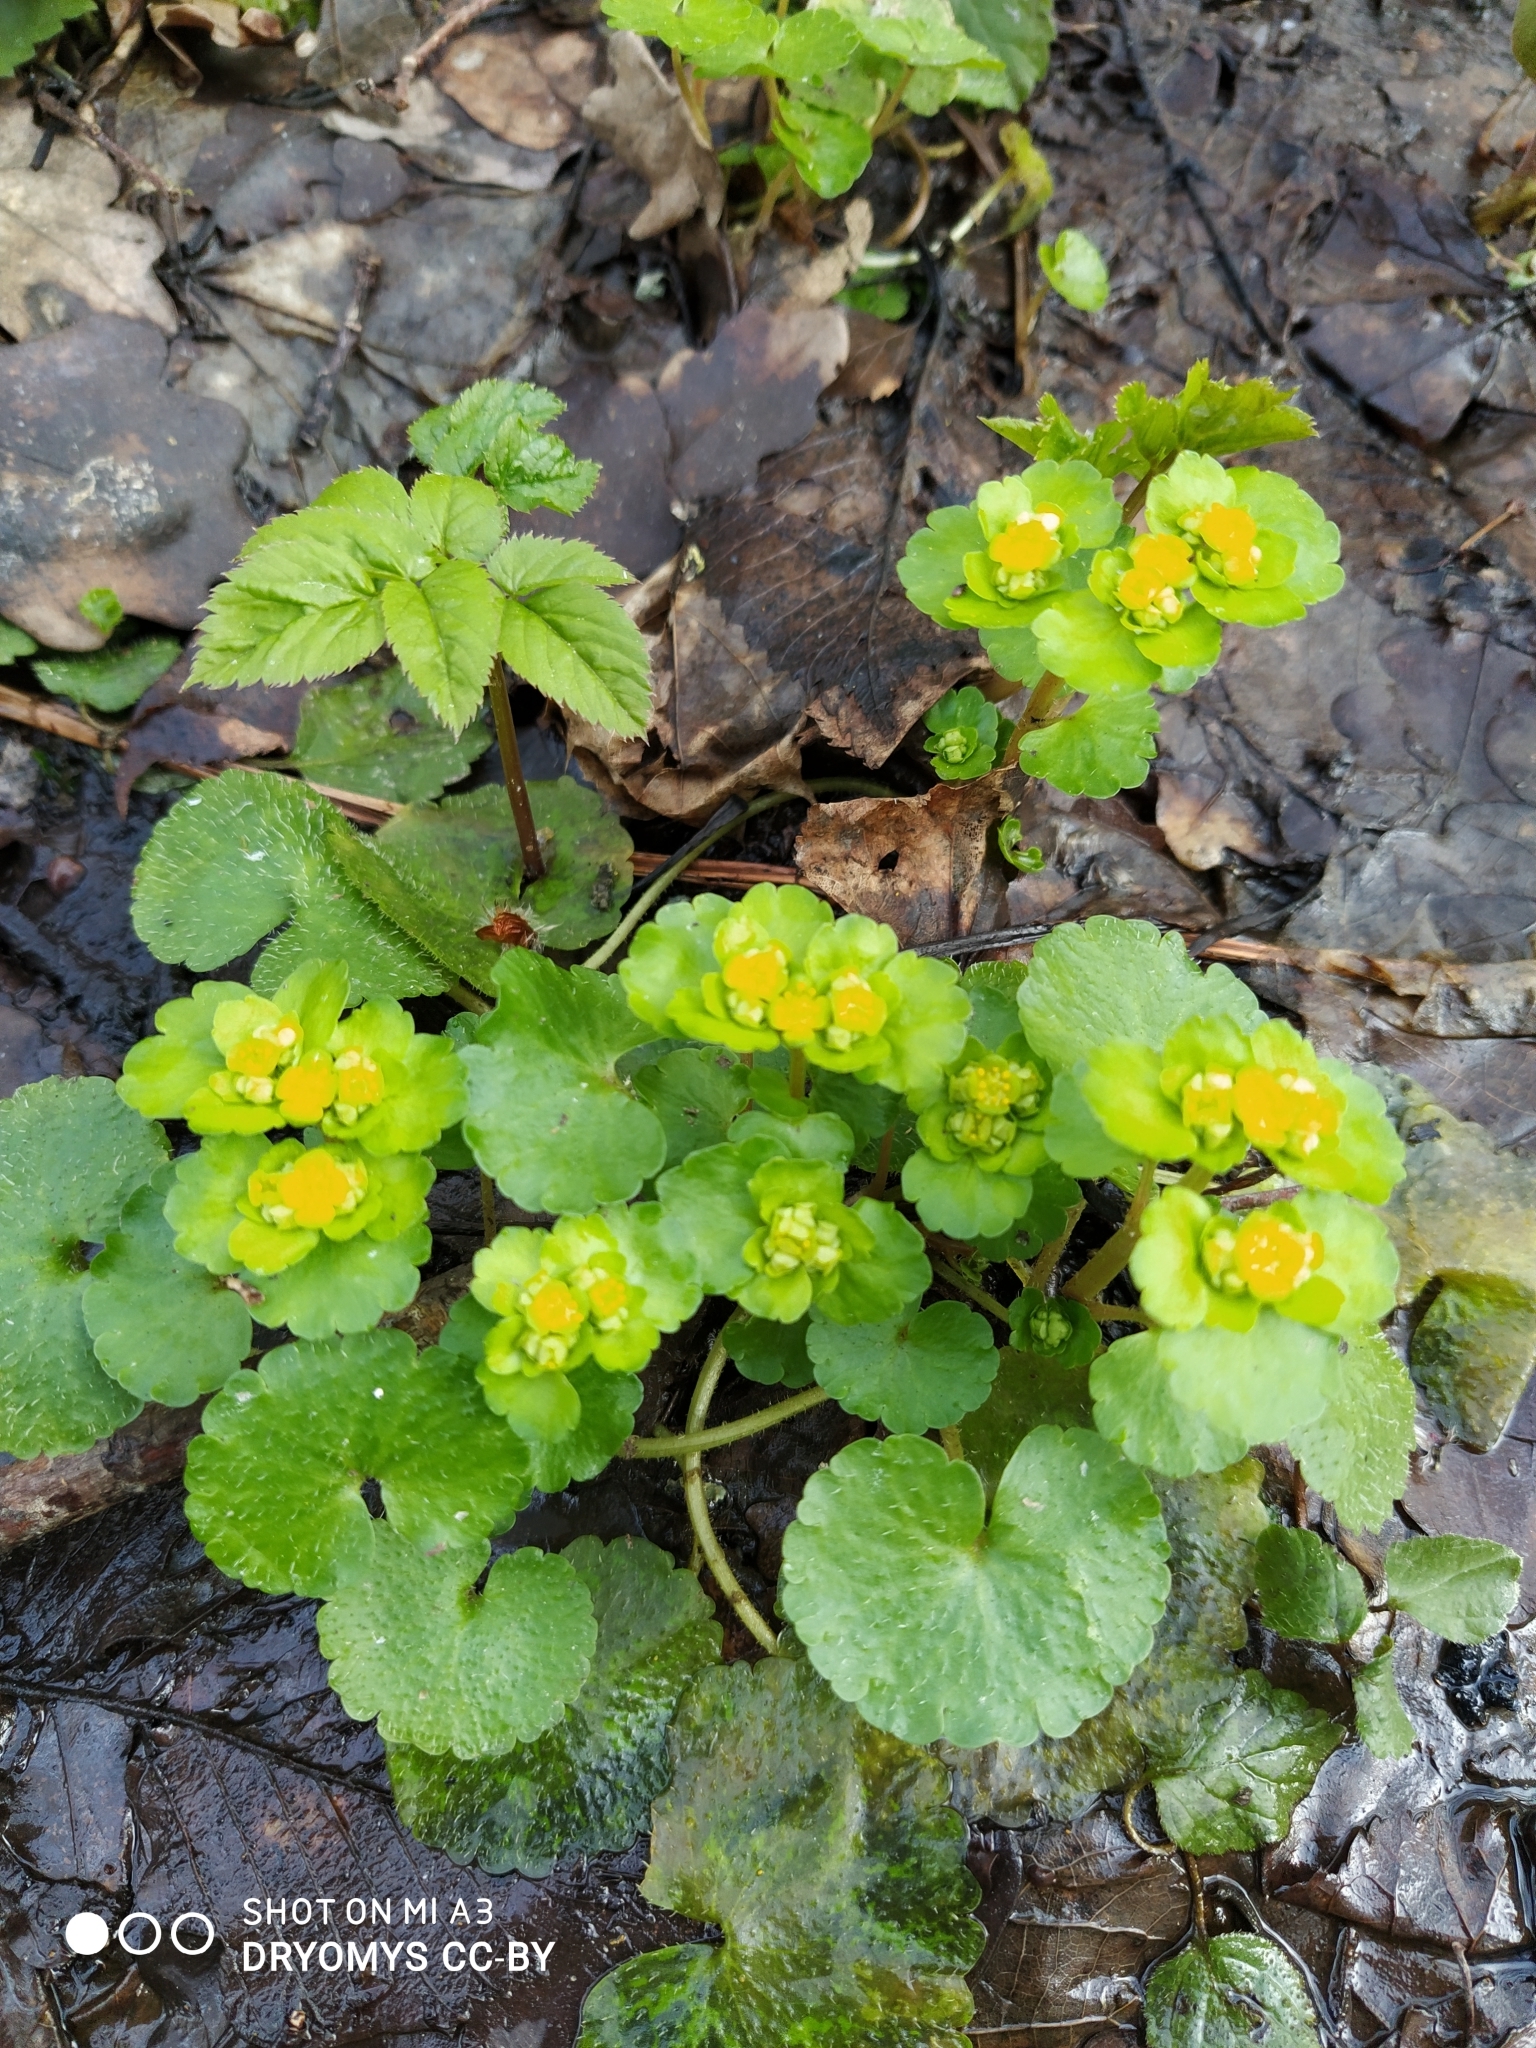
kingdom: Plantae
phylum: Tracheophyta
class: Magnoliopsida
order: Saxifragales
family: Saxifragaceae
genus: Chrysosplenium
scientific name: Chrysosplenium alternifolium
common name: Alternate-leaved golden-saxifrage
